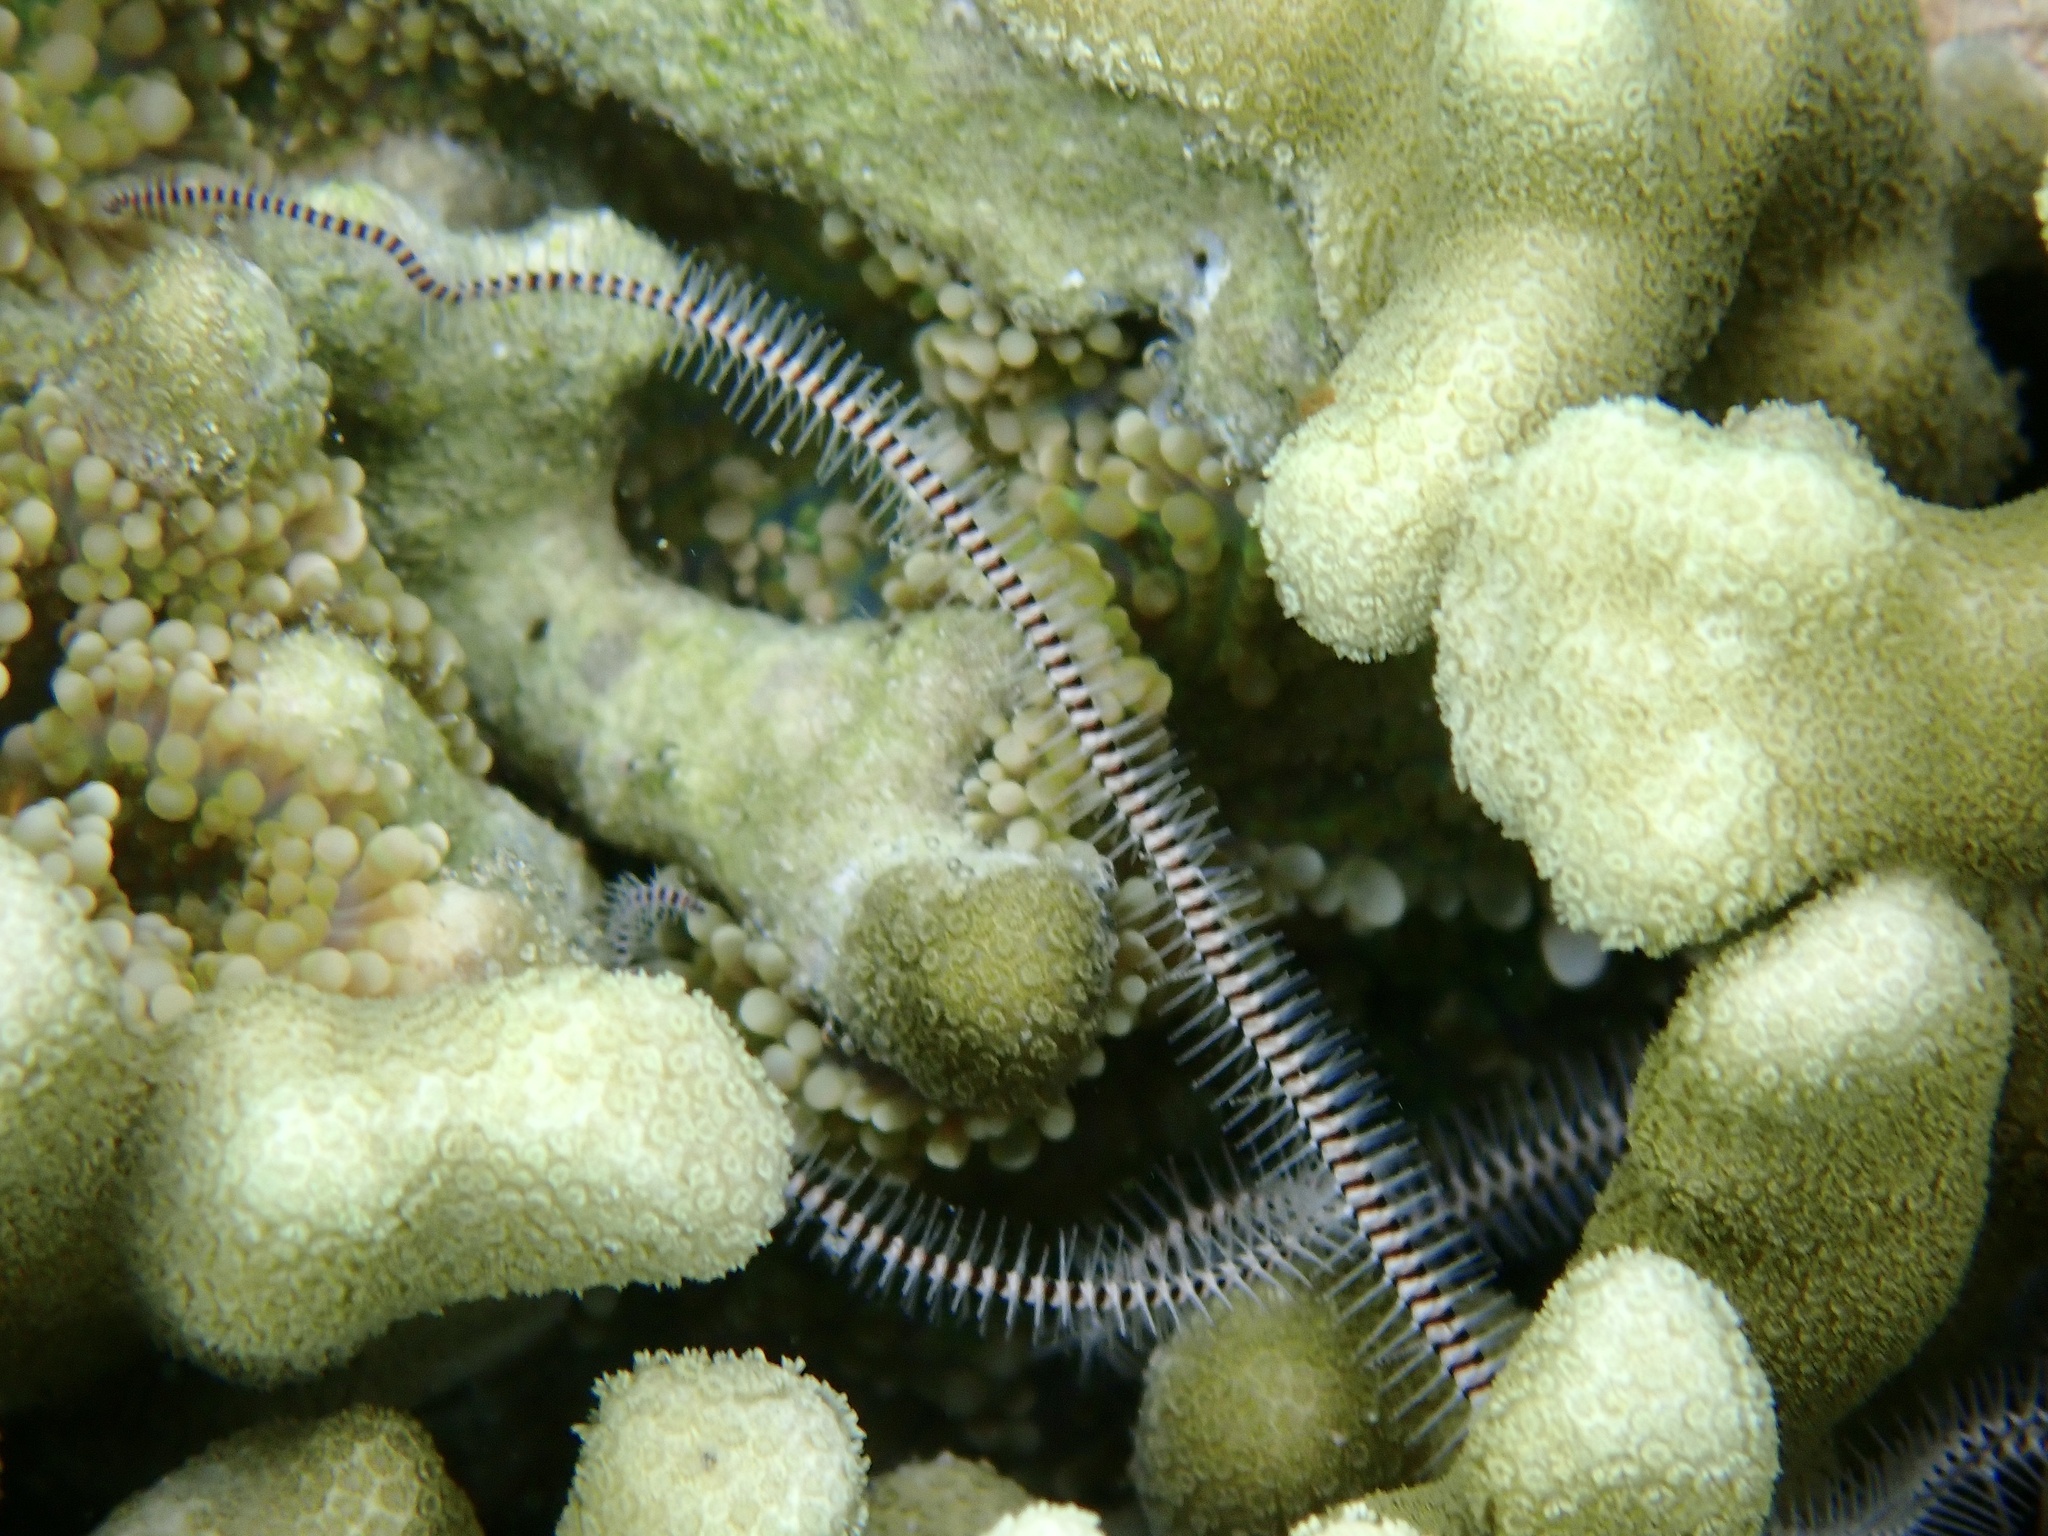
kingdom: Animalia
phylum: Echinodermata
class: Ophiuroidea
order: Ophiacanthida
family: Ophiocomidae
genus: Ophiomastix
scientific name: Ophiomastix caryophyllata
